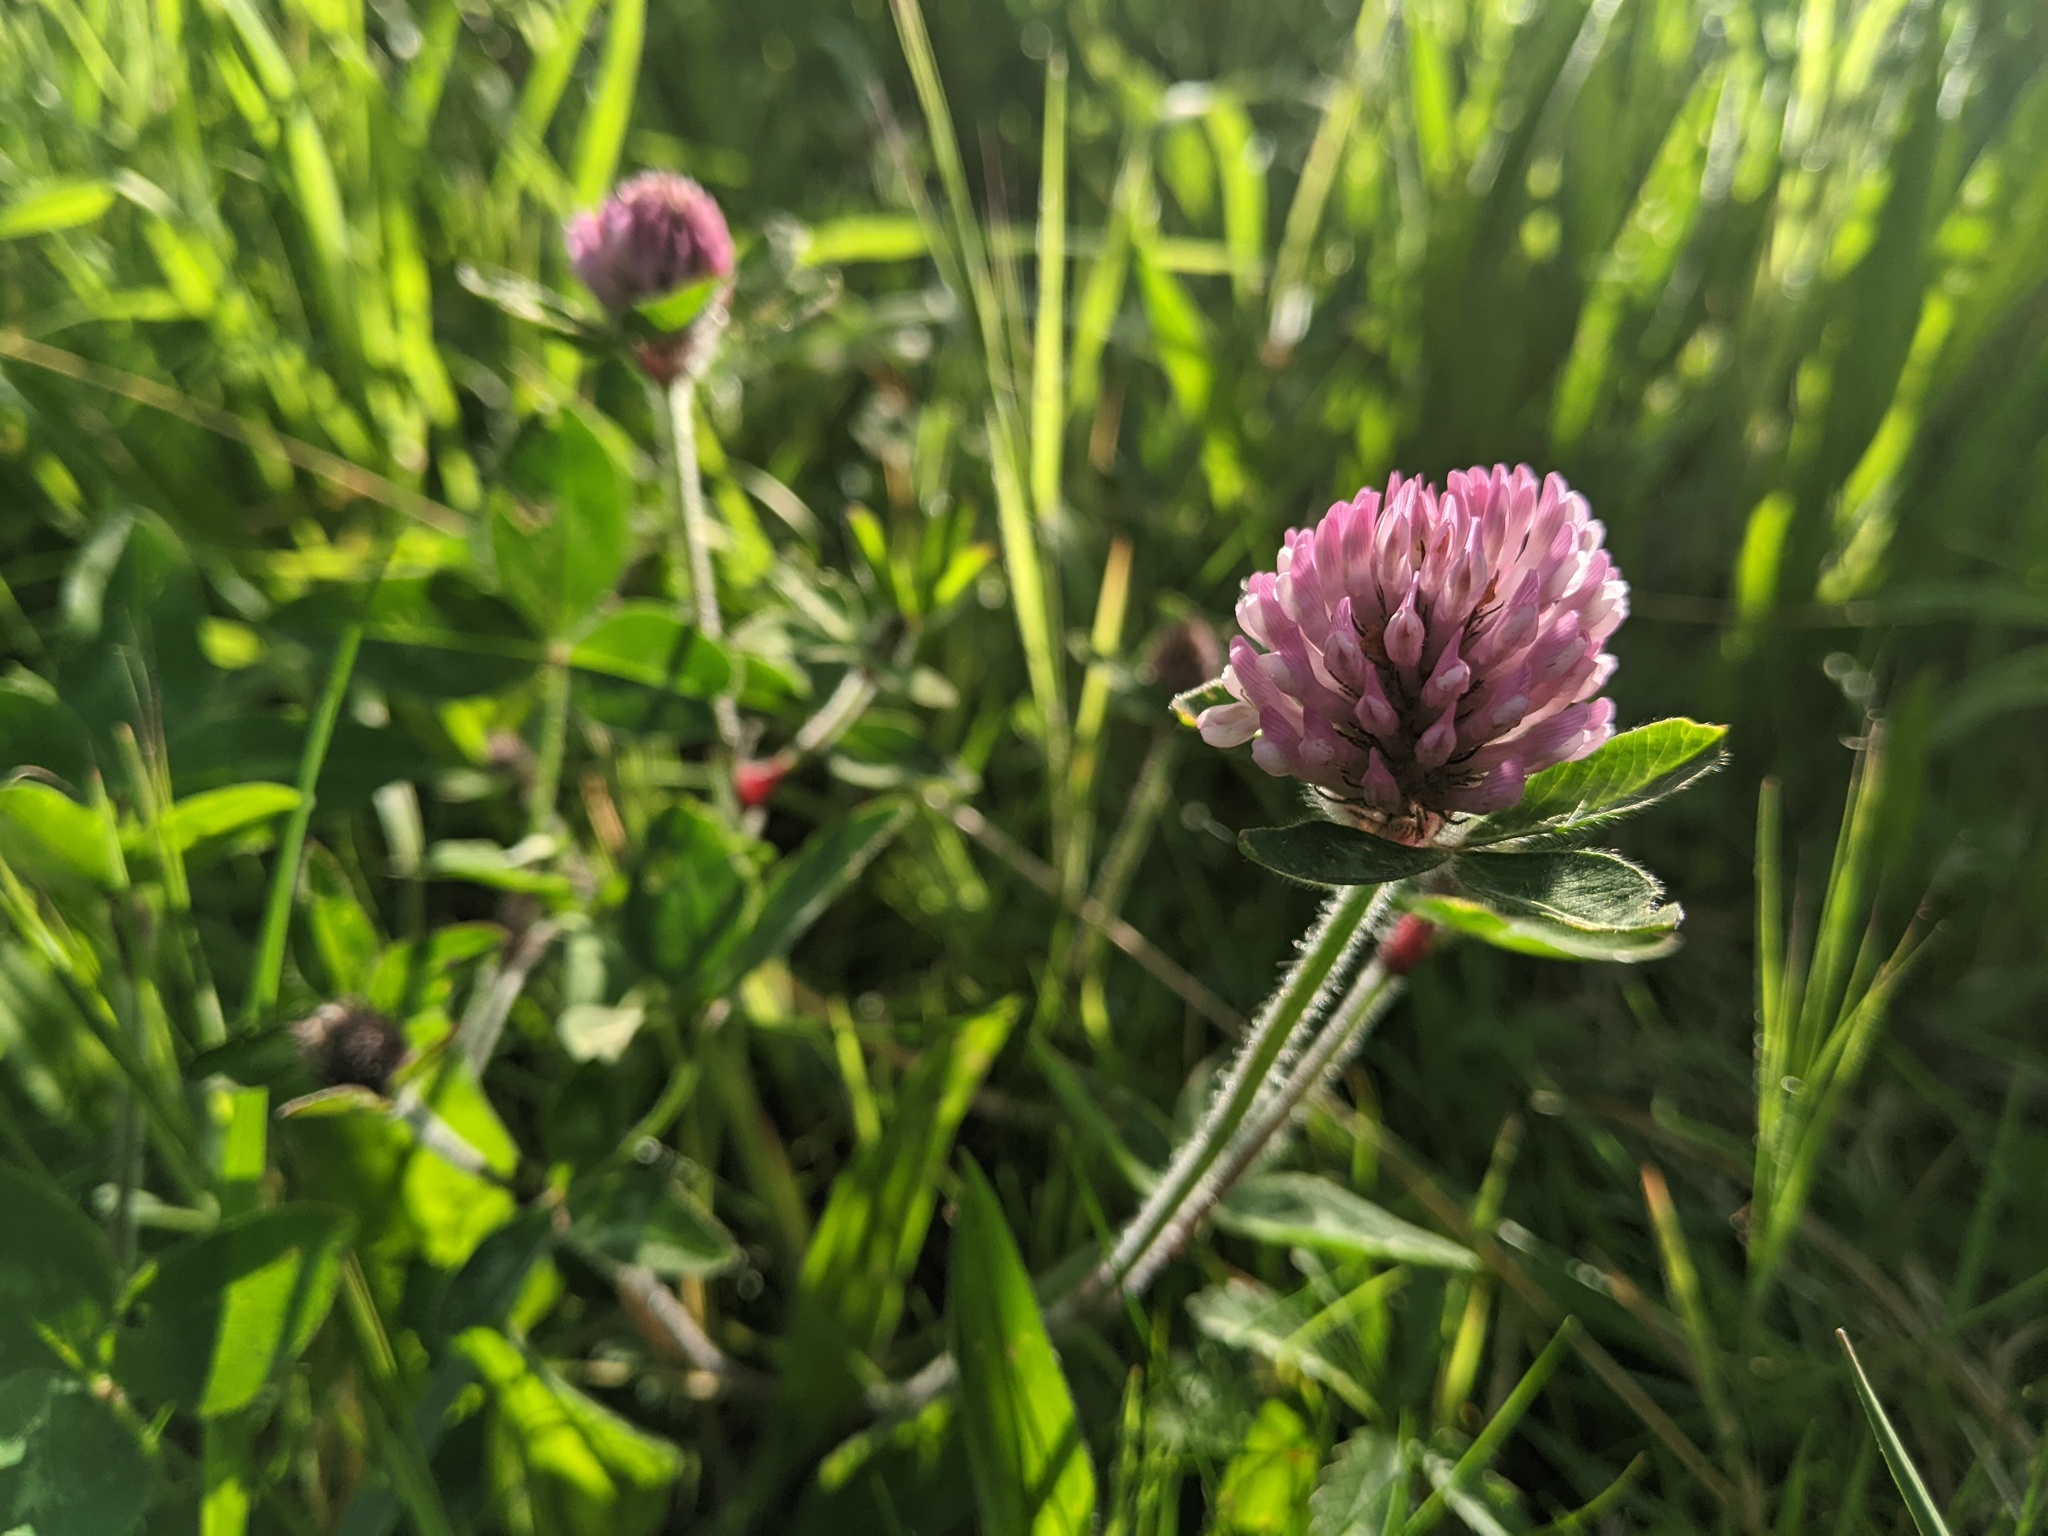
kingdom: Plantae
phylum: Tracheophyta
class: Magnoliopsida
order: Fabales
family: Fabaceae
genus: Trifolium
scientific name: Trifolium pratense
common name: Red clover
